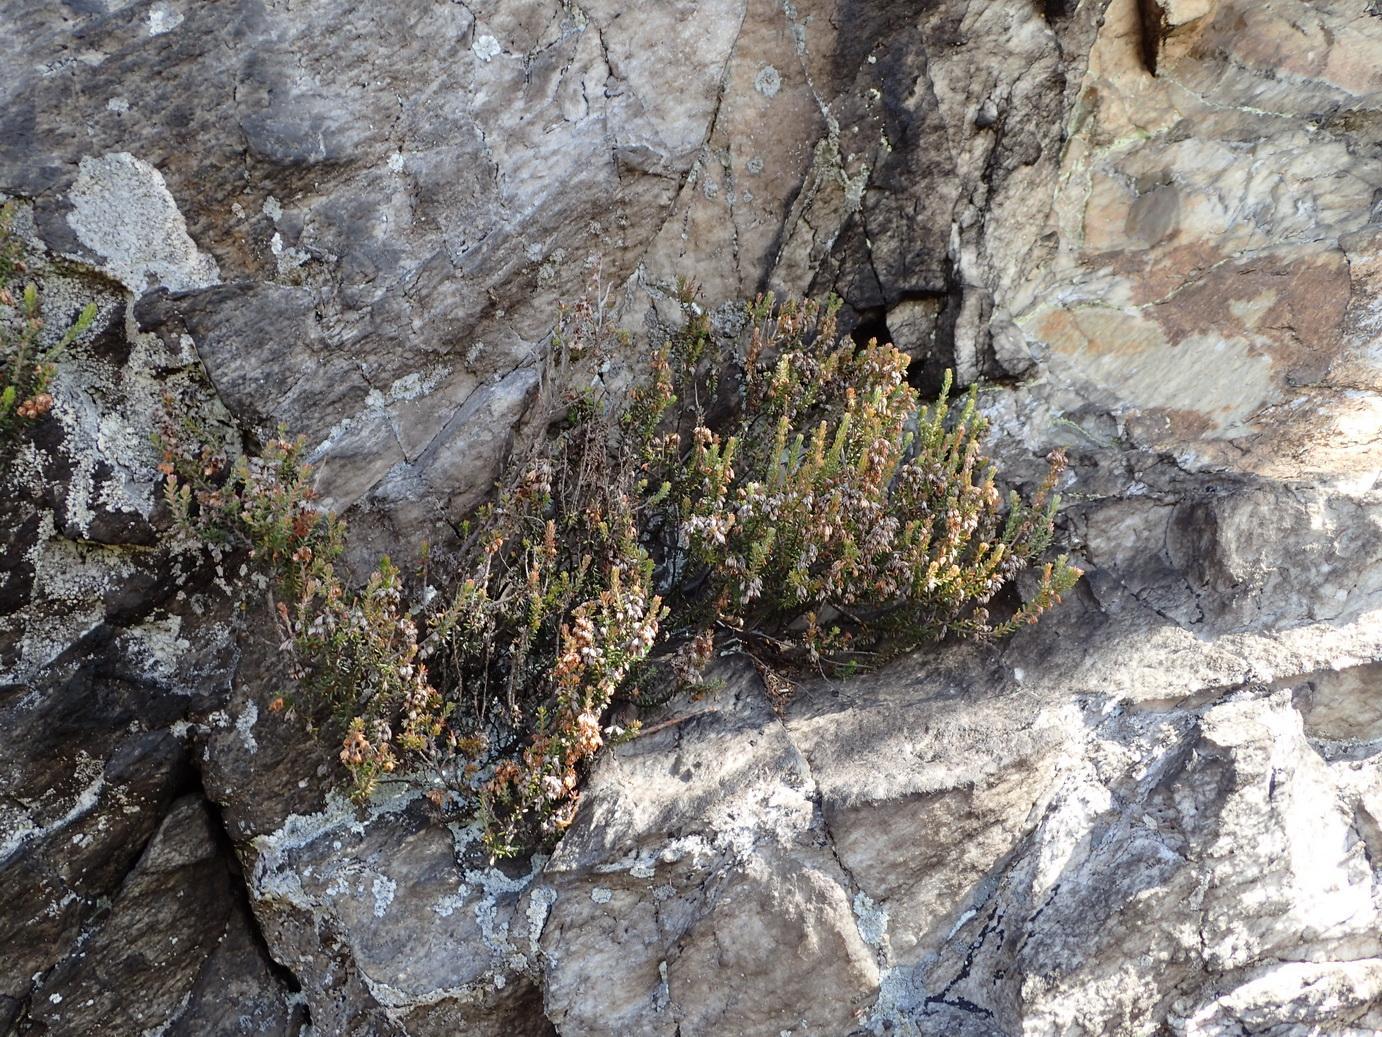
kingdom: Plantae
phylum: Tracheophyta
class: Magnoliopsida
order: Ericales
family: Ericaceae
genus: Erica
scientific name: Erica deflexa
